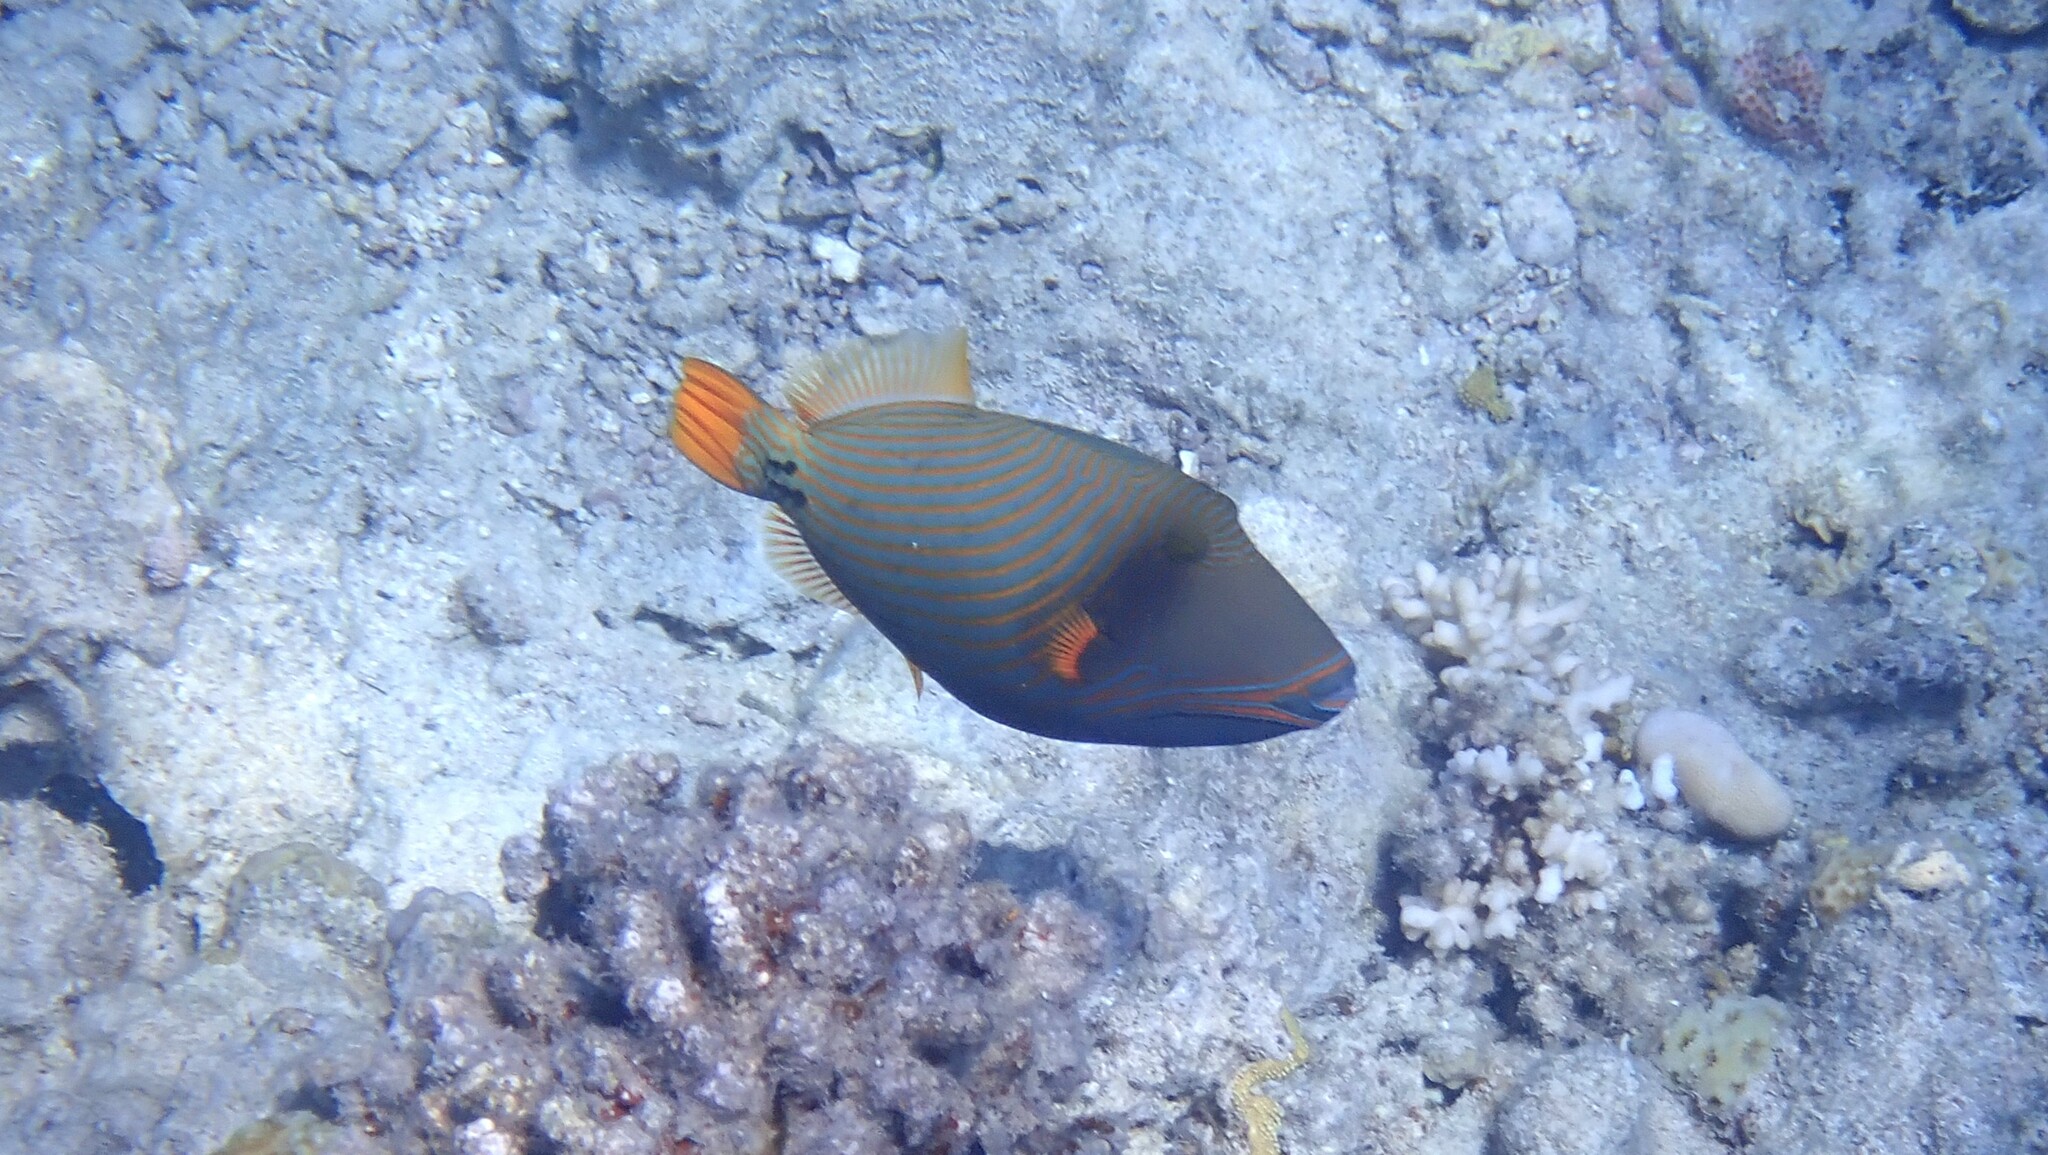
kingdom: Animalia
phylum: Chordata
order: Tetraodontiformes
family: Balistidae
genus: Balistapus
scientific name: Balistapus undulatus
